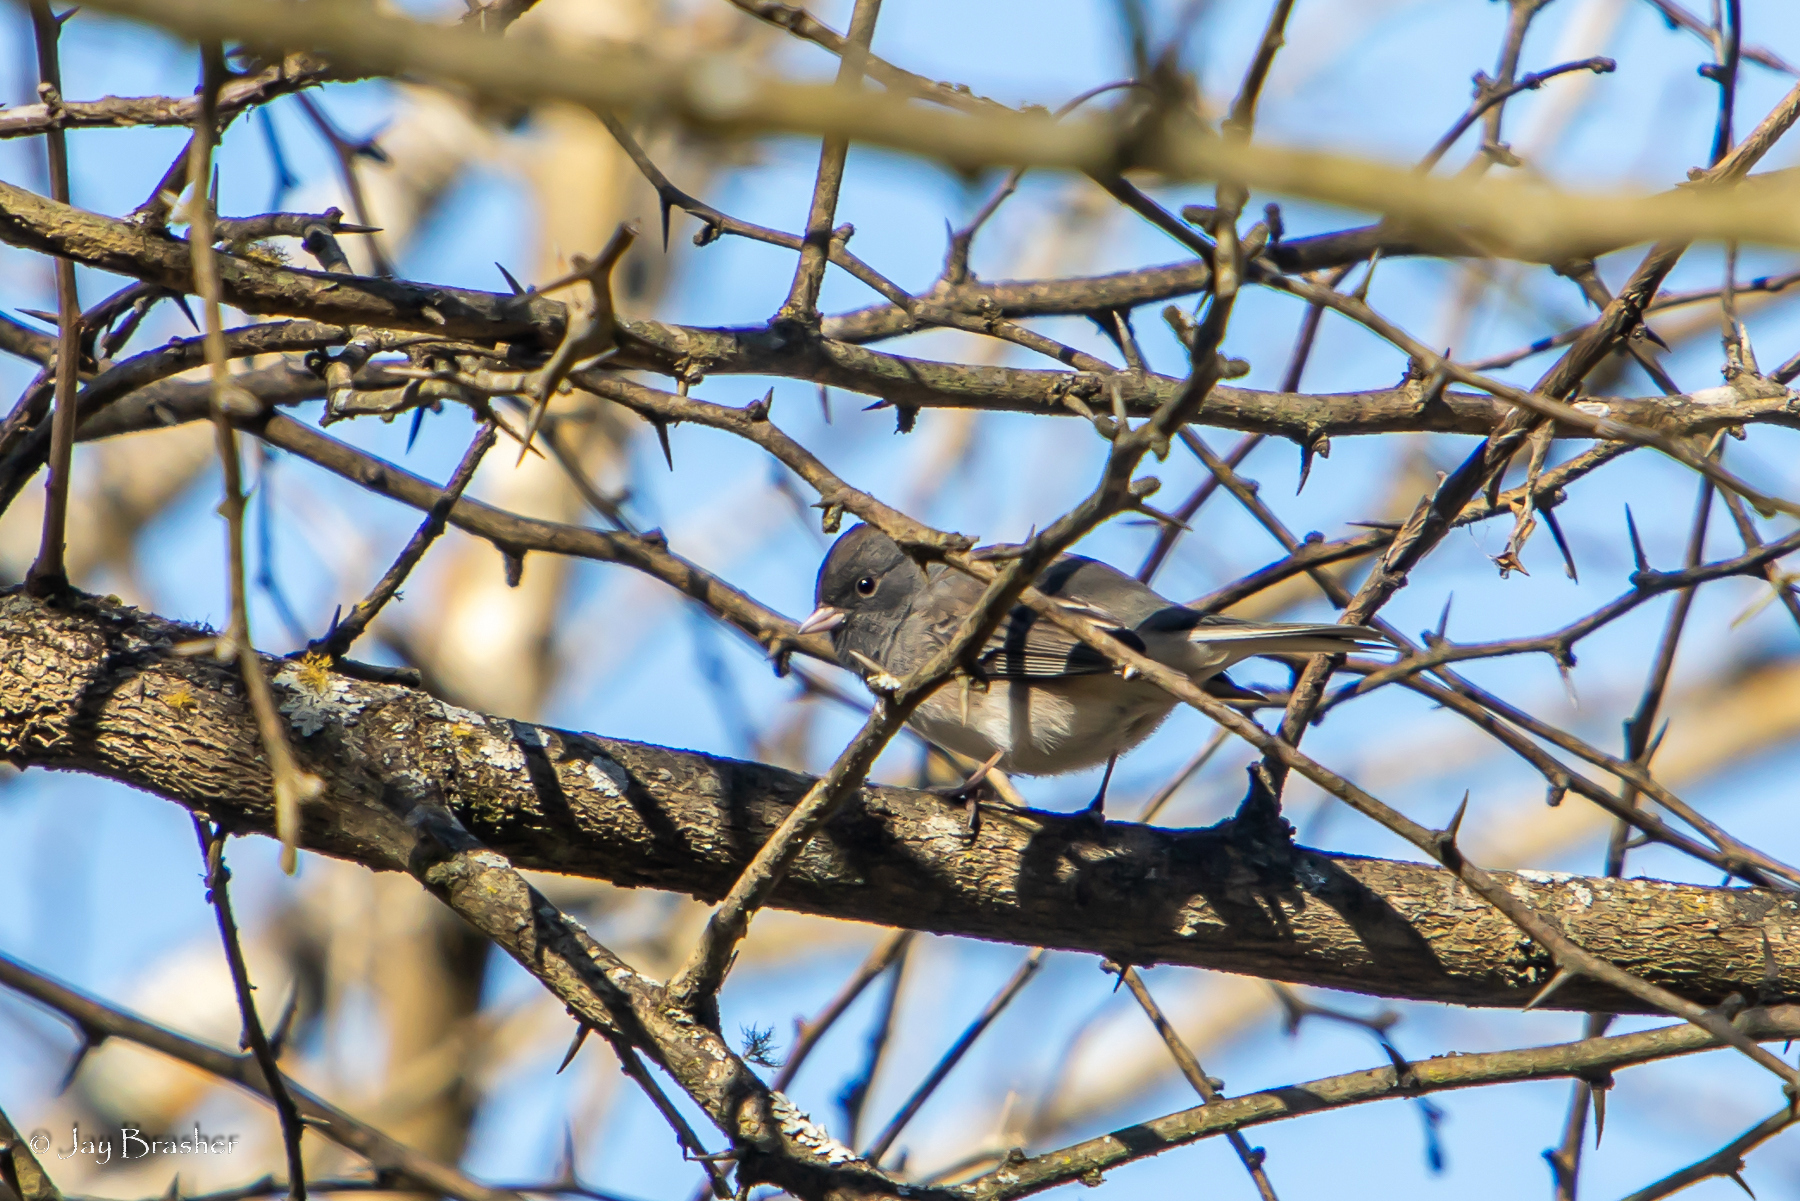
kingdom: Animalia
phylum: Chordata
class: Aves
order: Passeriformes
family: Passerellidae
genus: Junco
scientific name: Junco hyemalis
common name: Dark-eyed junco
